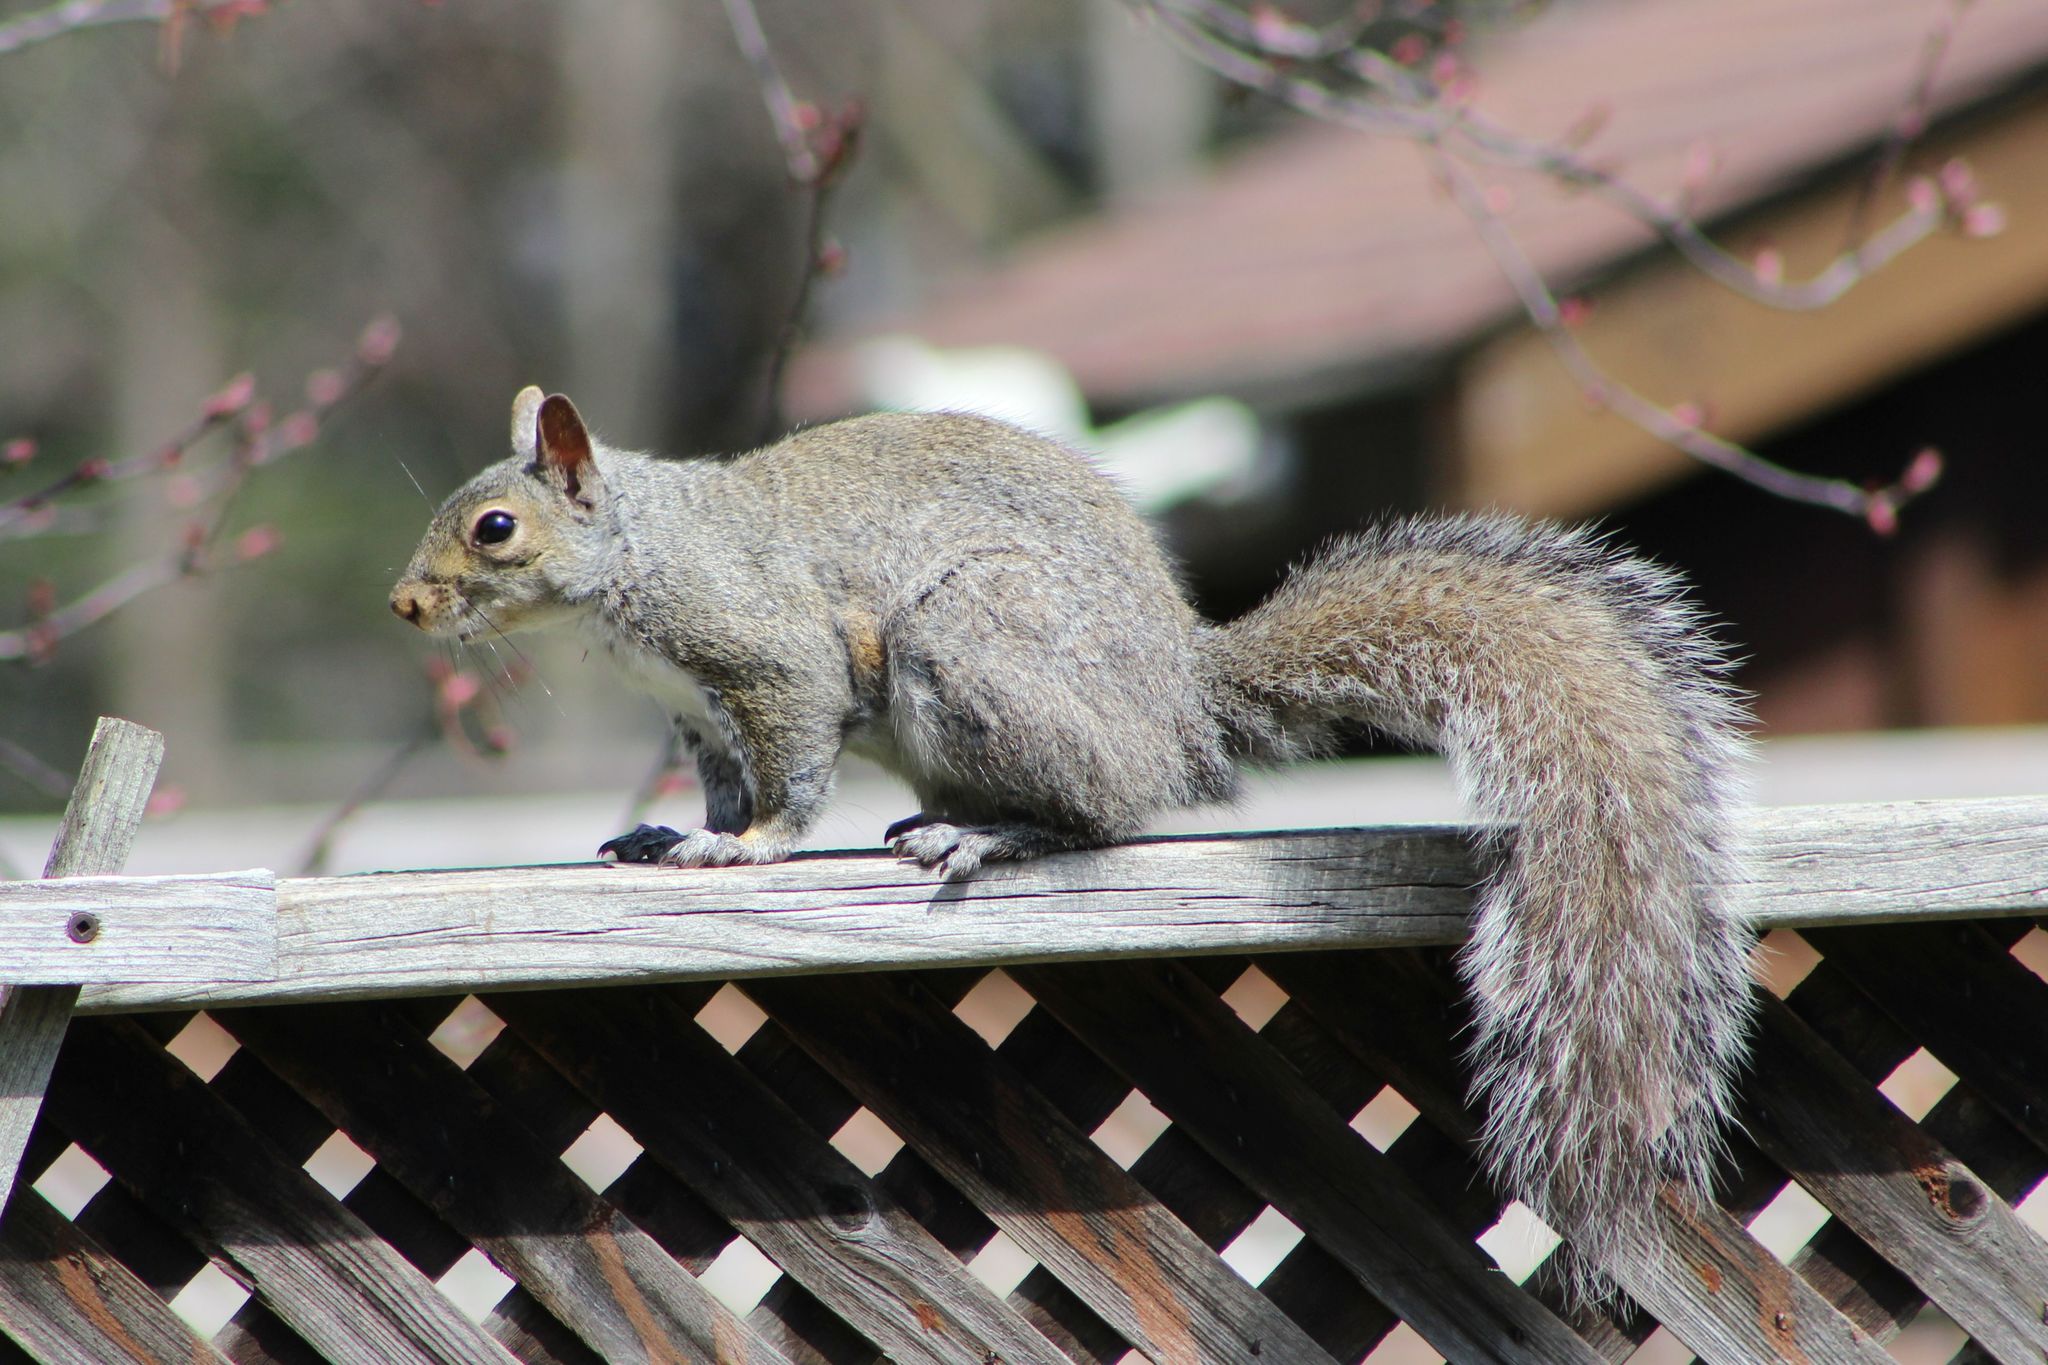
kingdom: Animalia
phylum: Chordata
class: Mammalia
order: Rodentia
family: Sciuridae
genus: Sciurus
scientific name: Sciurus carolinensis
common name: Eastern gray squirrel
